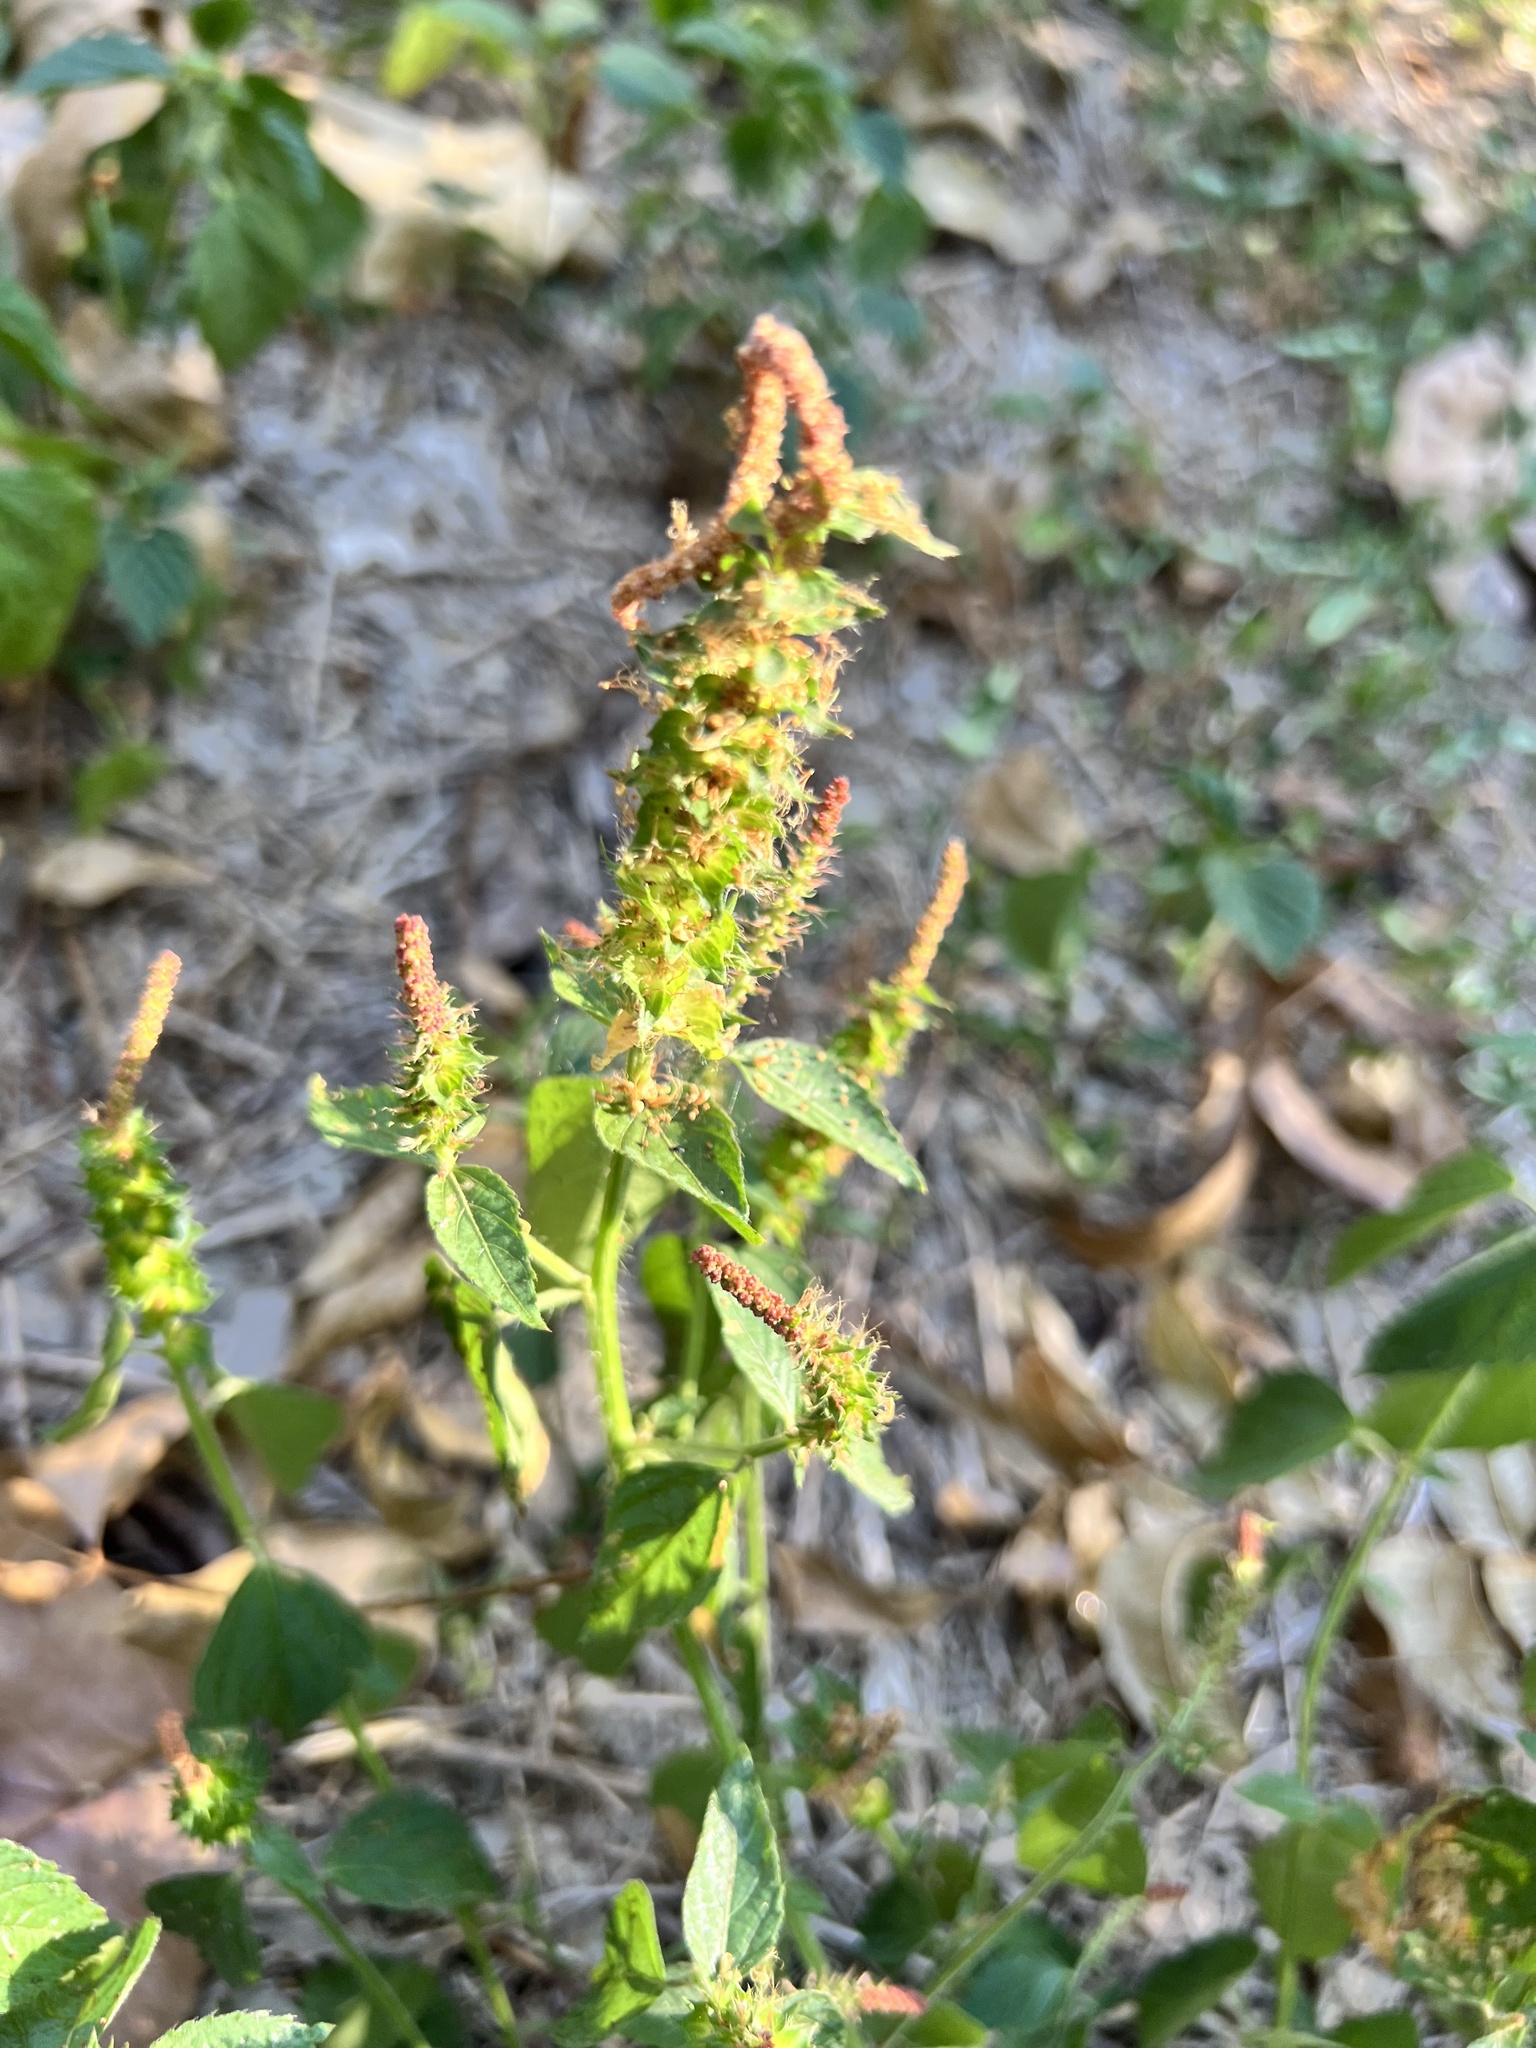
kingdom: Plantae
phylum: Tracheophyta
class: Magnoliopsida
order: Malpighiales
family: Euphorbiaceae
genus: Acalypha
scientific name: Acalypha phleoides
